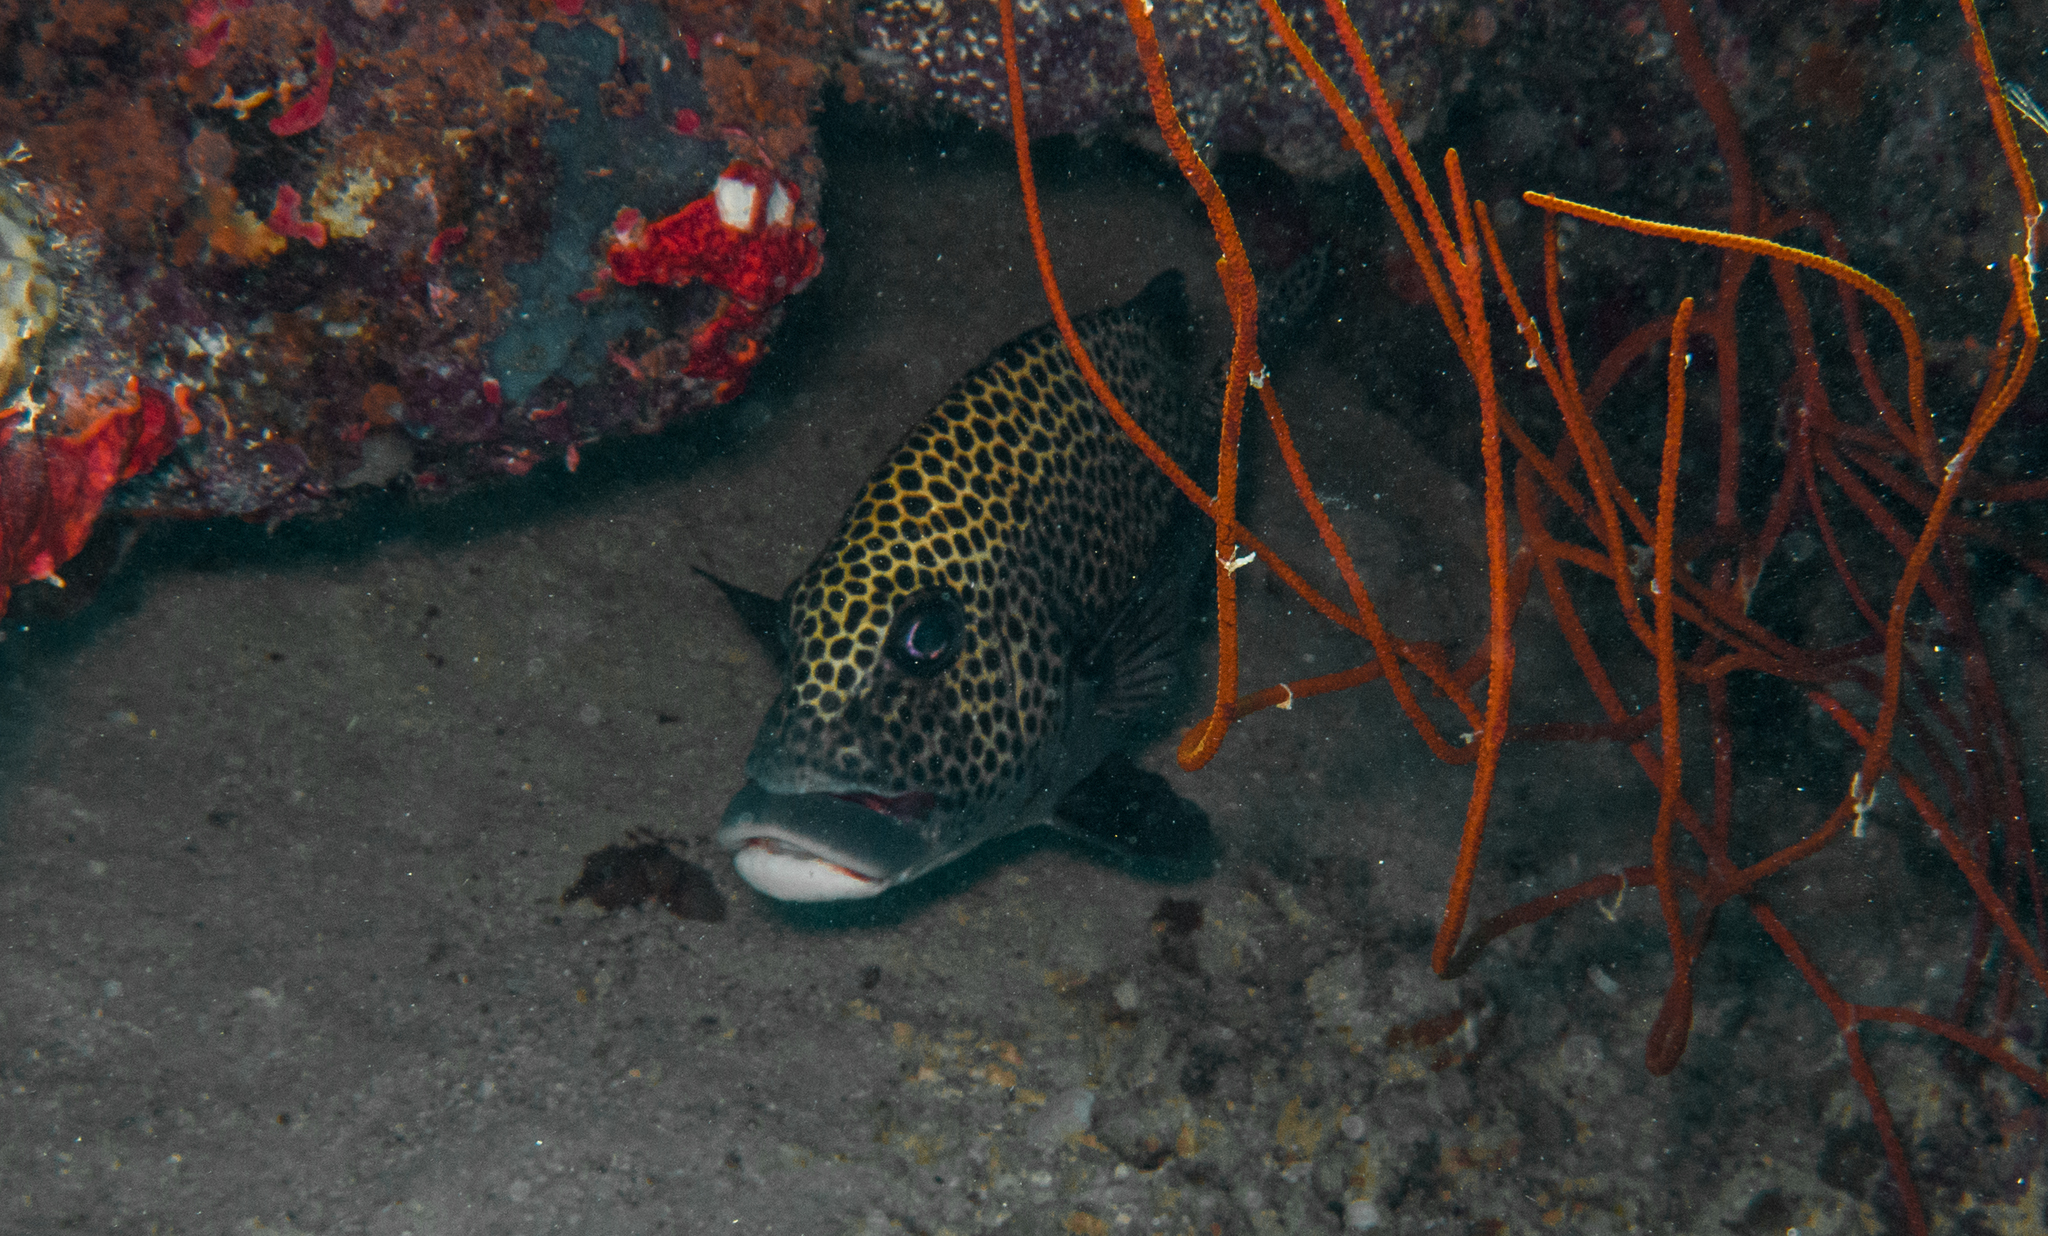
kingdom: Animalia
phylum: Chordata
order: Perciformes
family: Haemulidae
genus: Plectorhinchus
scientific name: Plectorhinchus chaetodonoides
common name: Harlequin sweetlips
